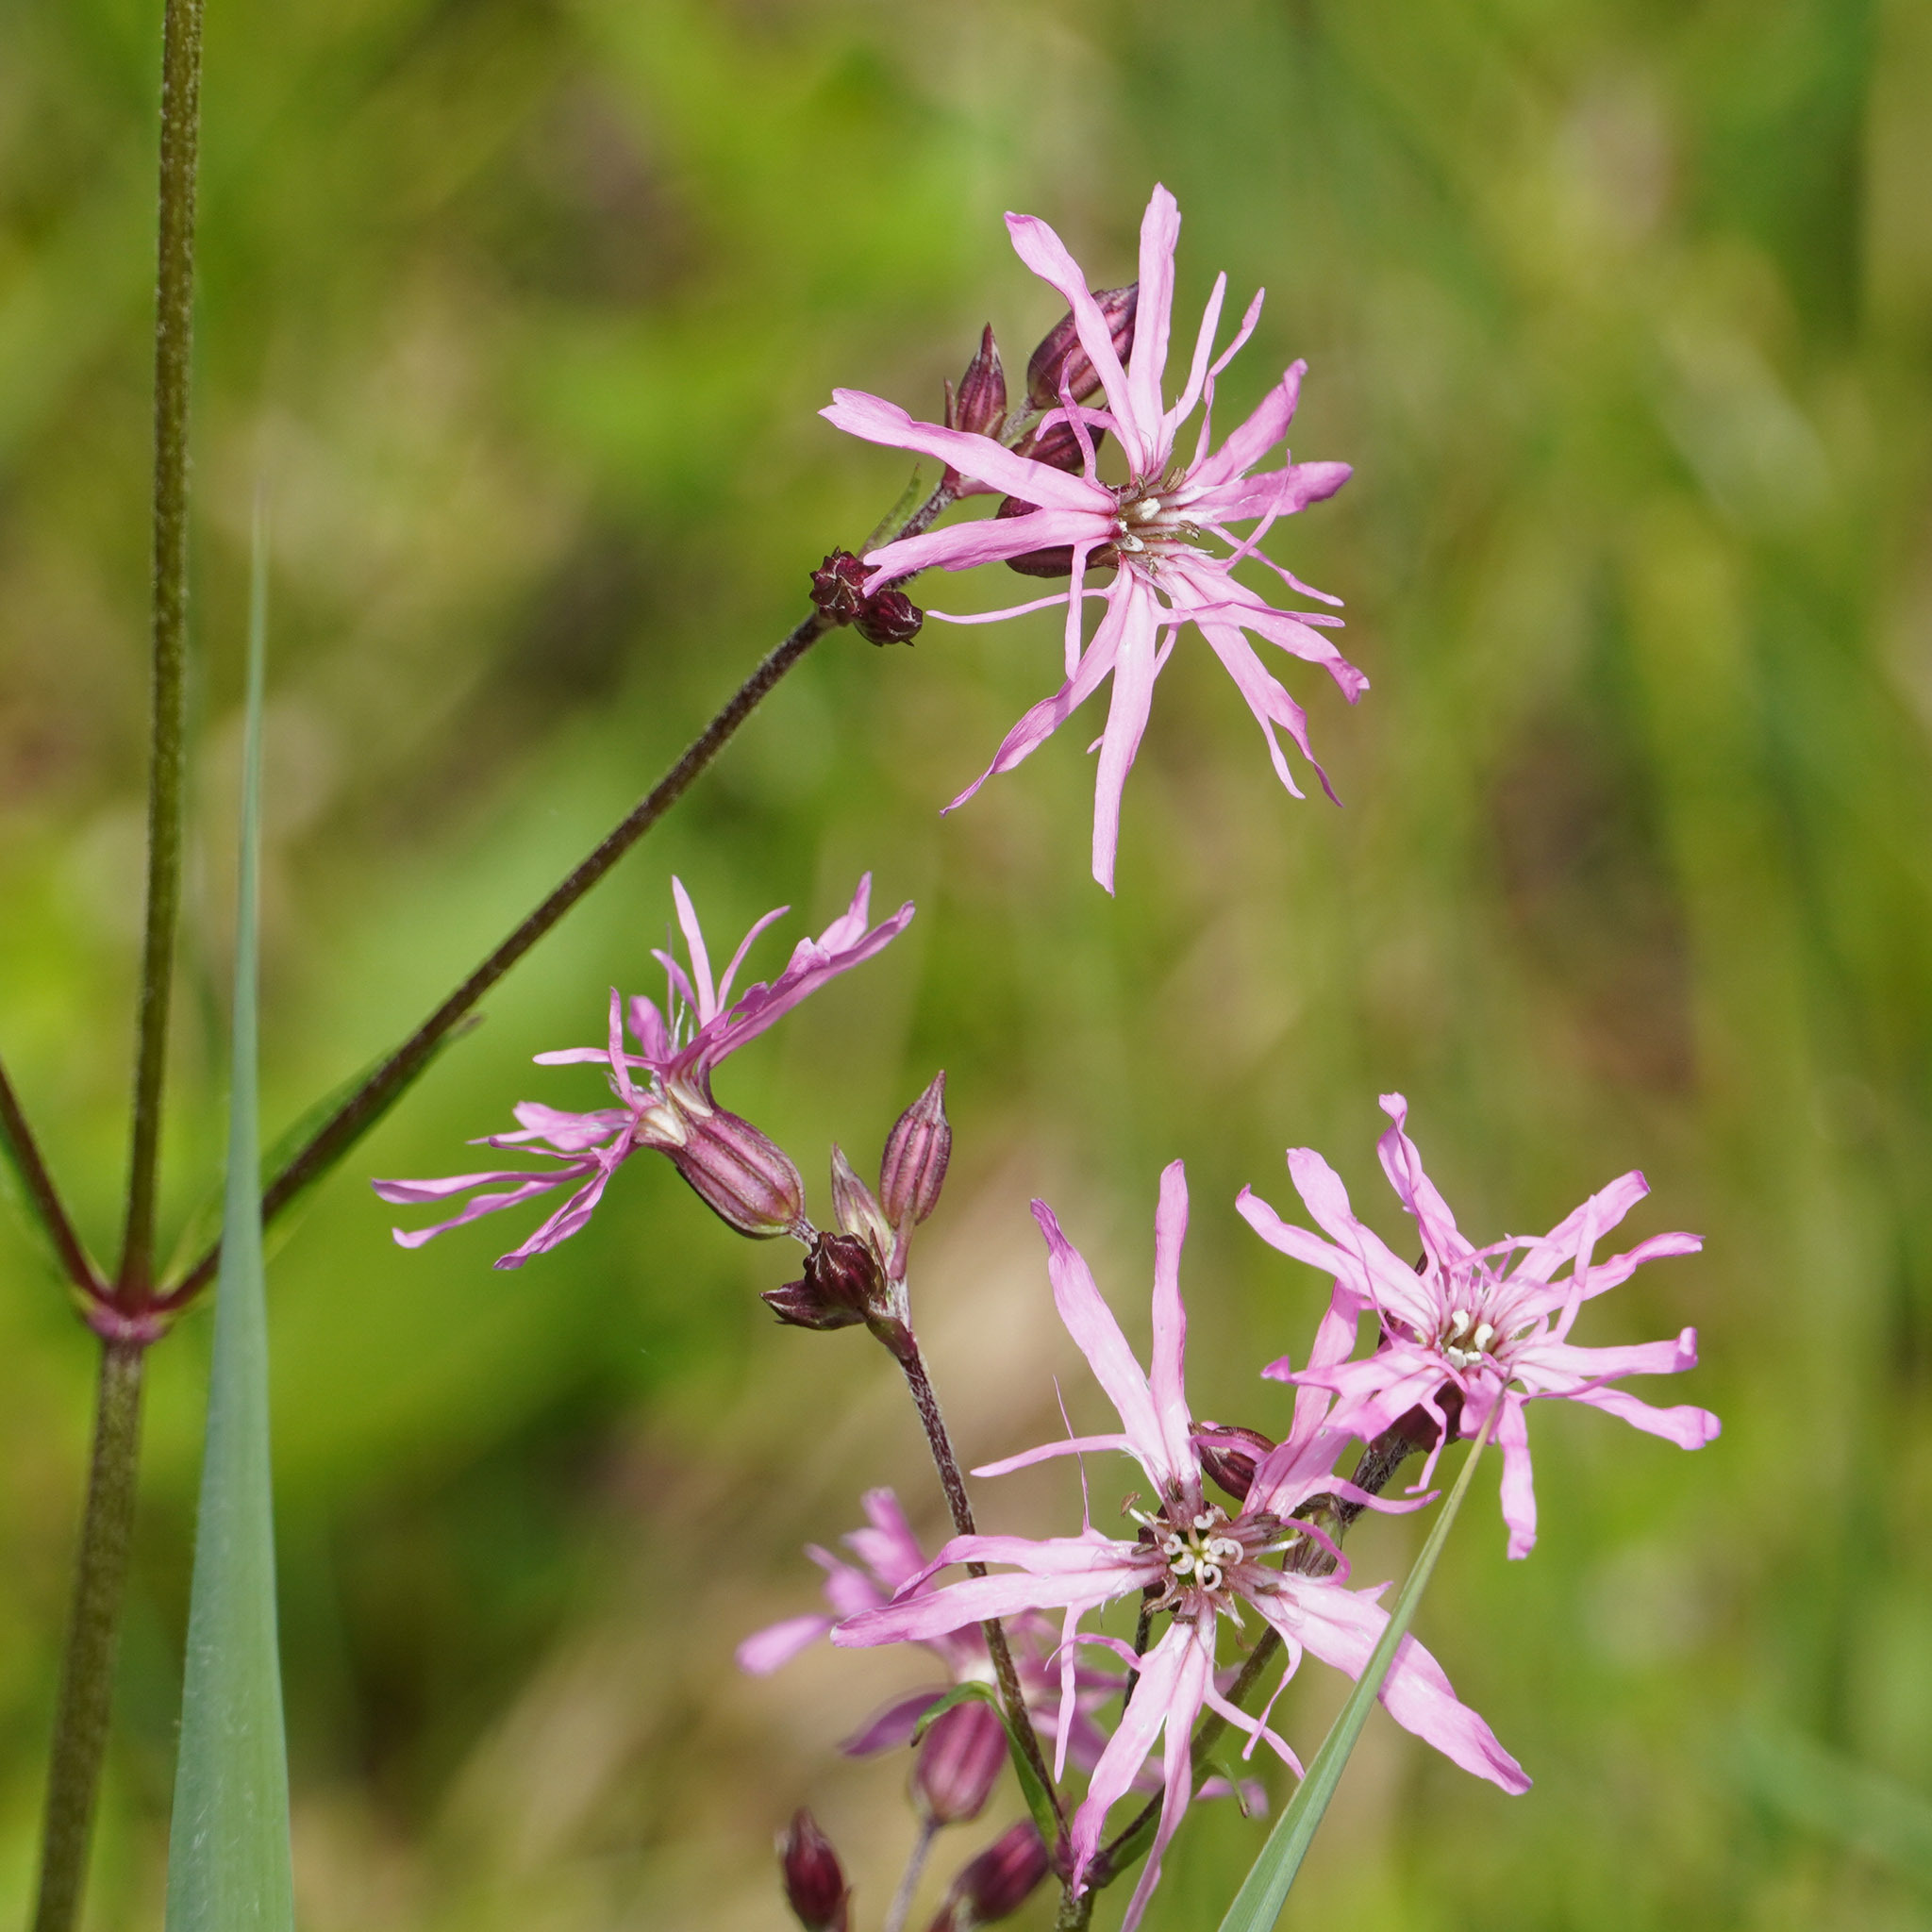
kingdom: Plantae
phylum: Tracheophyta
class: Magnoliopsida
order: Caryophyllales
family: Caryophyllaceae
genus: Silene
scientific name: Silene flos-cuculi
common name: Ragged-robin
